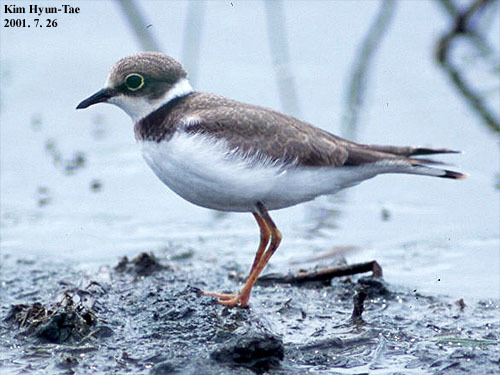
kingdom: Animalia
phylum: Chordata
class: Aves
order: Charadriiformes
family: Charadriidae
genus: Charadrius
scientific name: Charadrius dubius
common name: Little ringed plover
